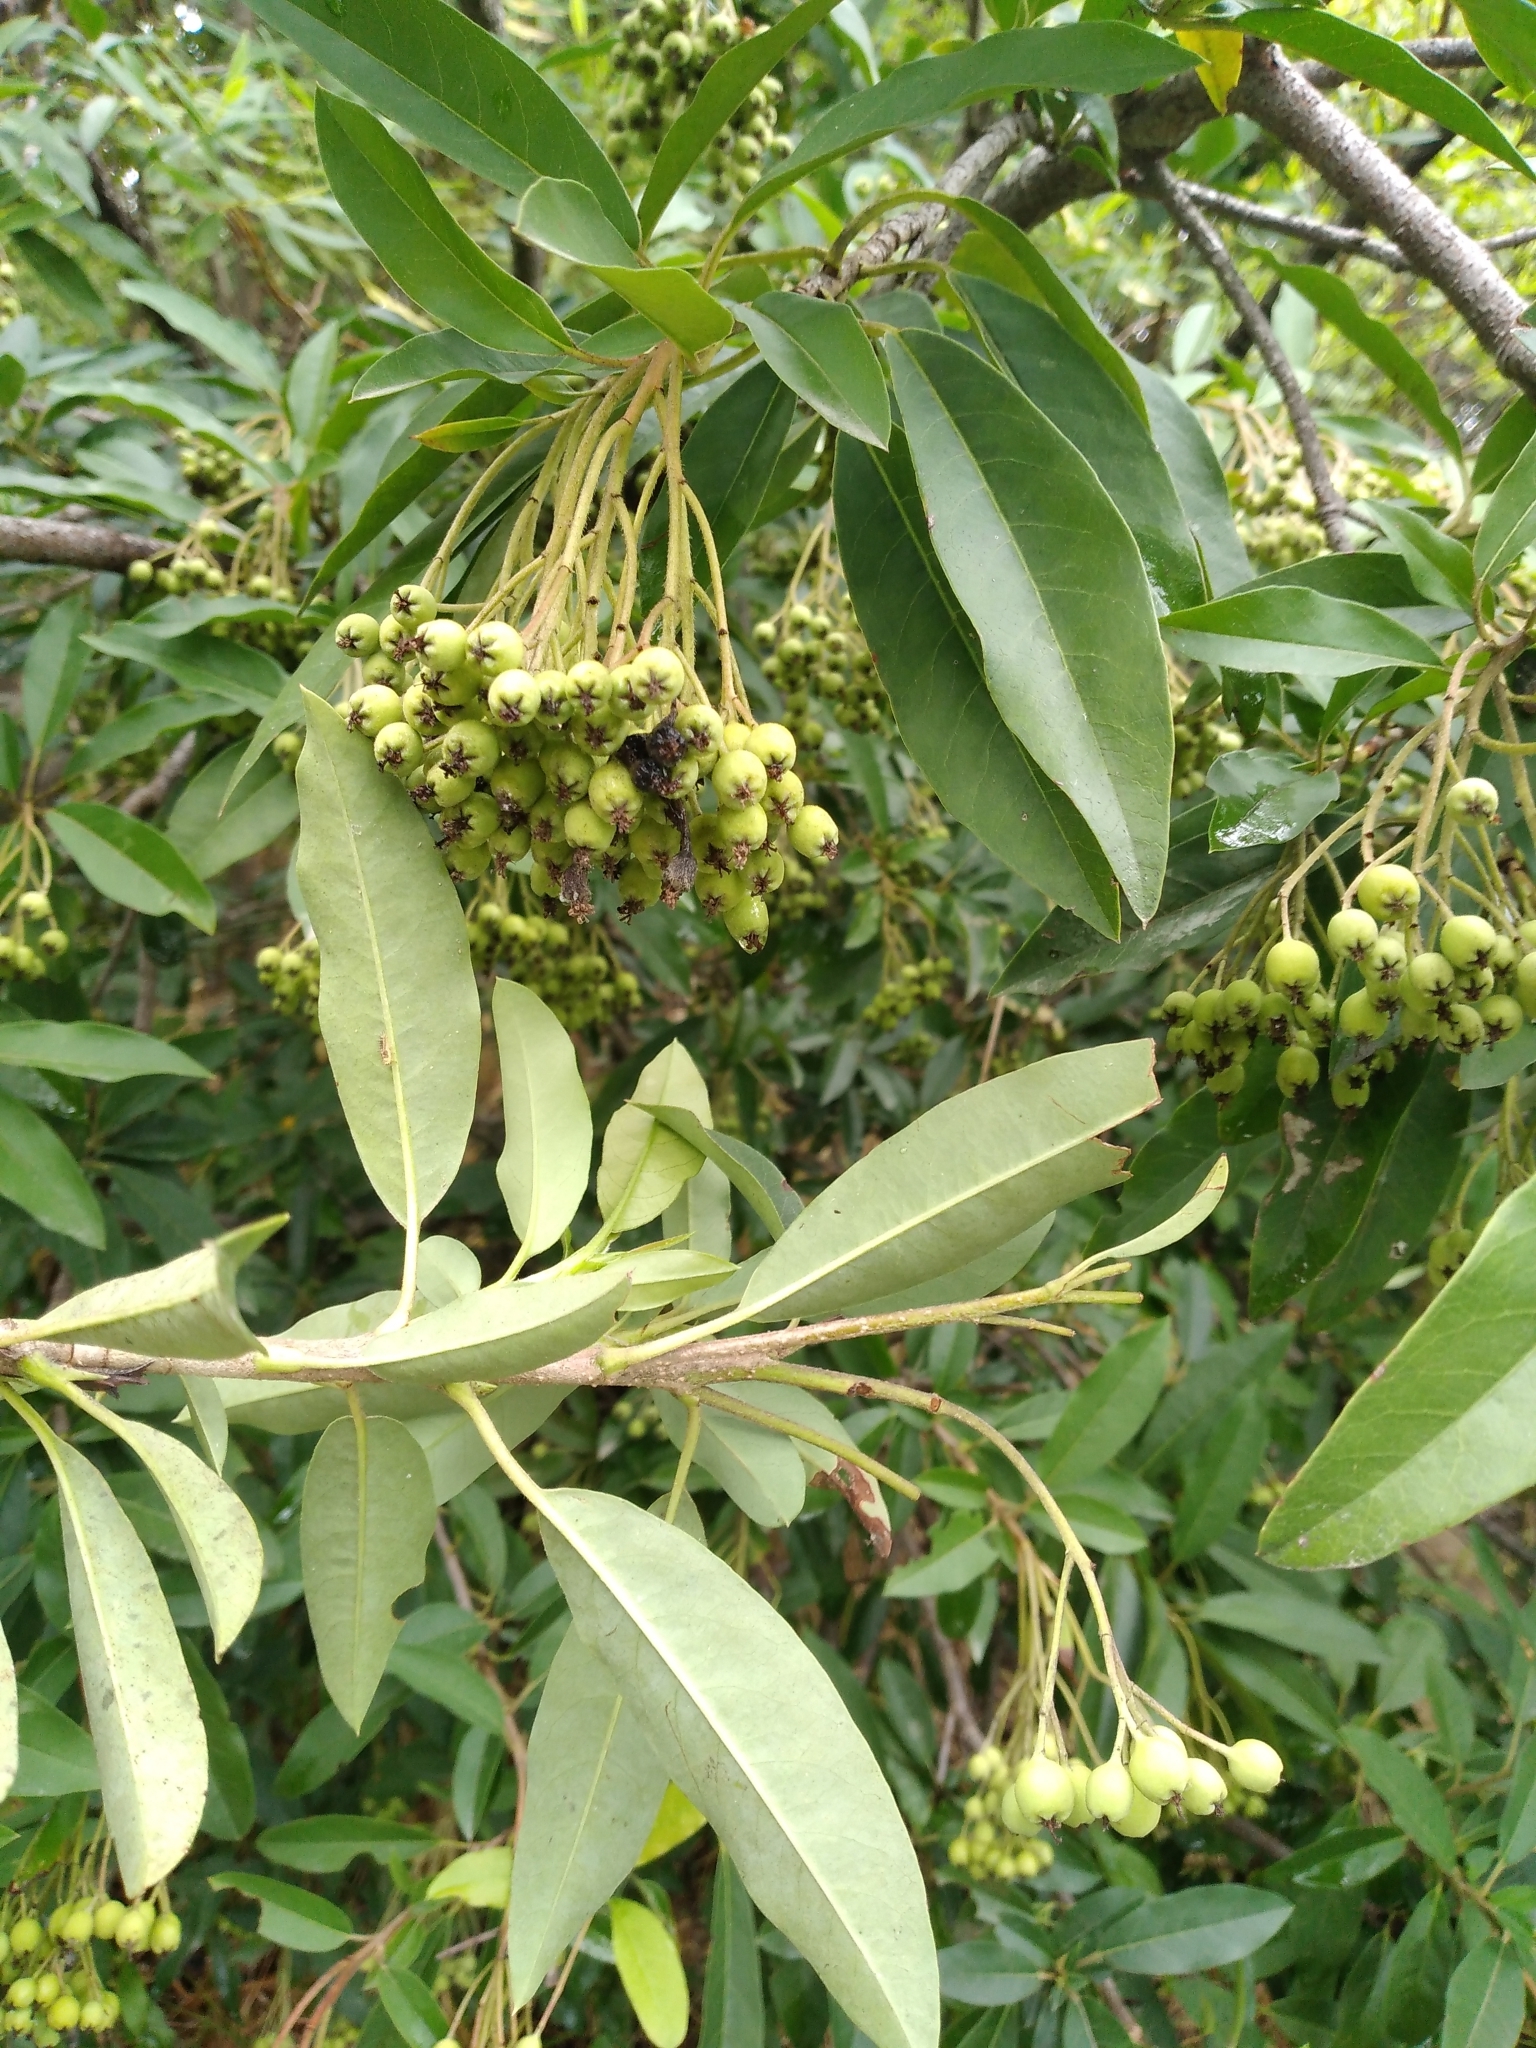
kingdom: Plantae
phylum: Tracheophyta
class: Magnoliopsida
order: Rosales
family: Rosaceae
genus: Stranvaesia
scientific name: Stranvaesia davidiana
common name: Chinese photinia
